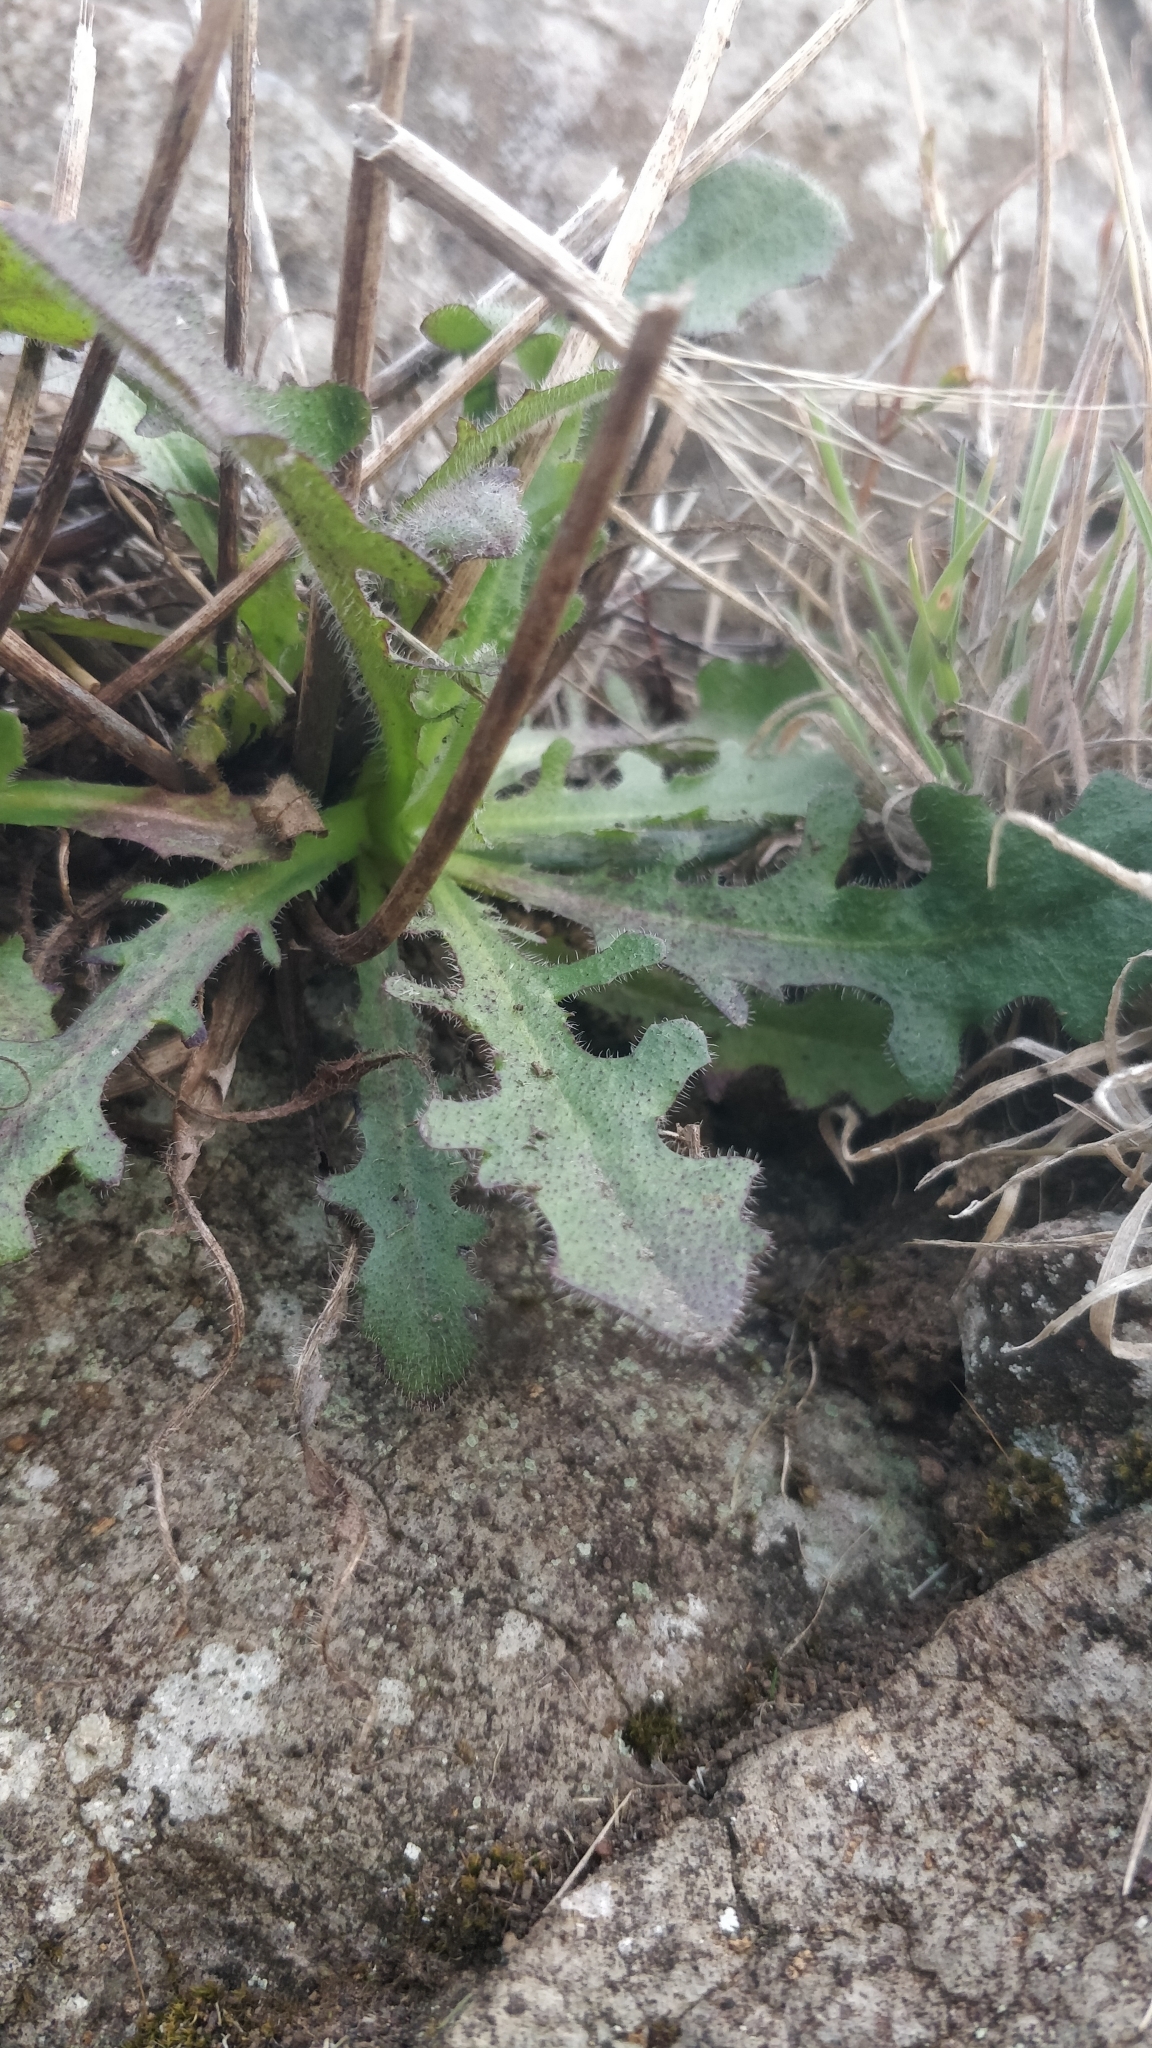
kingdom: Plantae
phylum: Tracheophyta
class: Magnoliopsida
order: Asterales
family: Asteraceae
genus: Hypochaeris
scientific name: Hypochaeris radicata
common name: Flatweed
